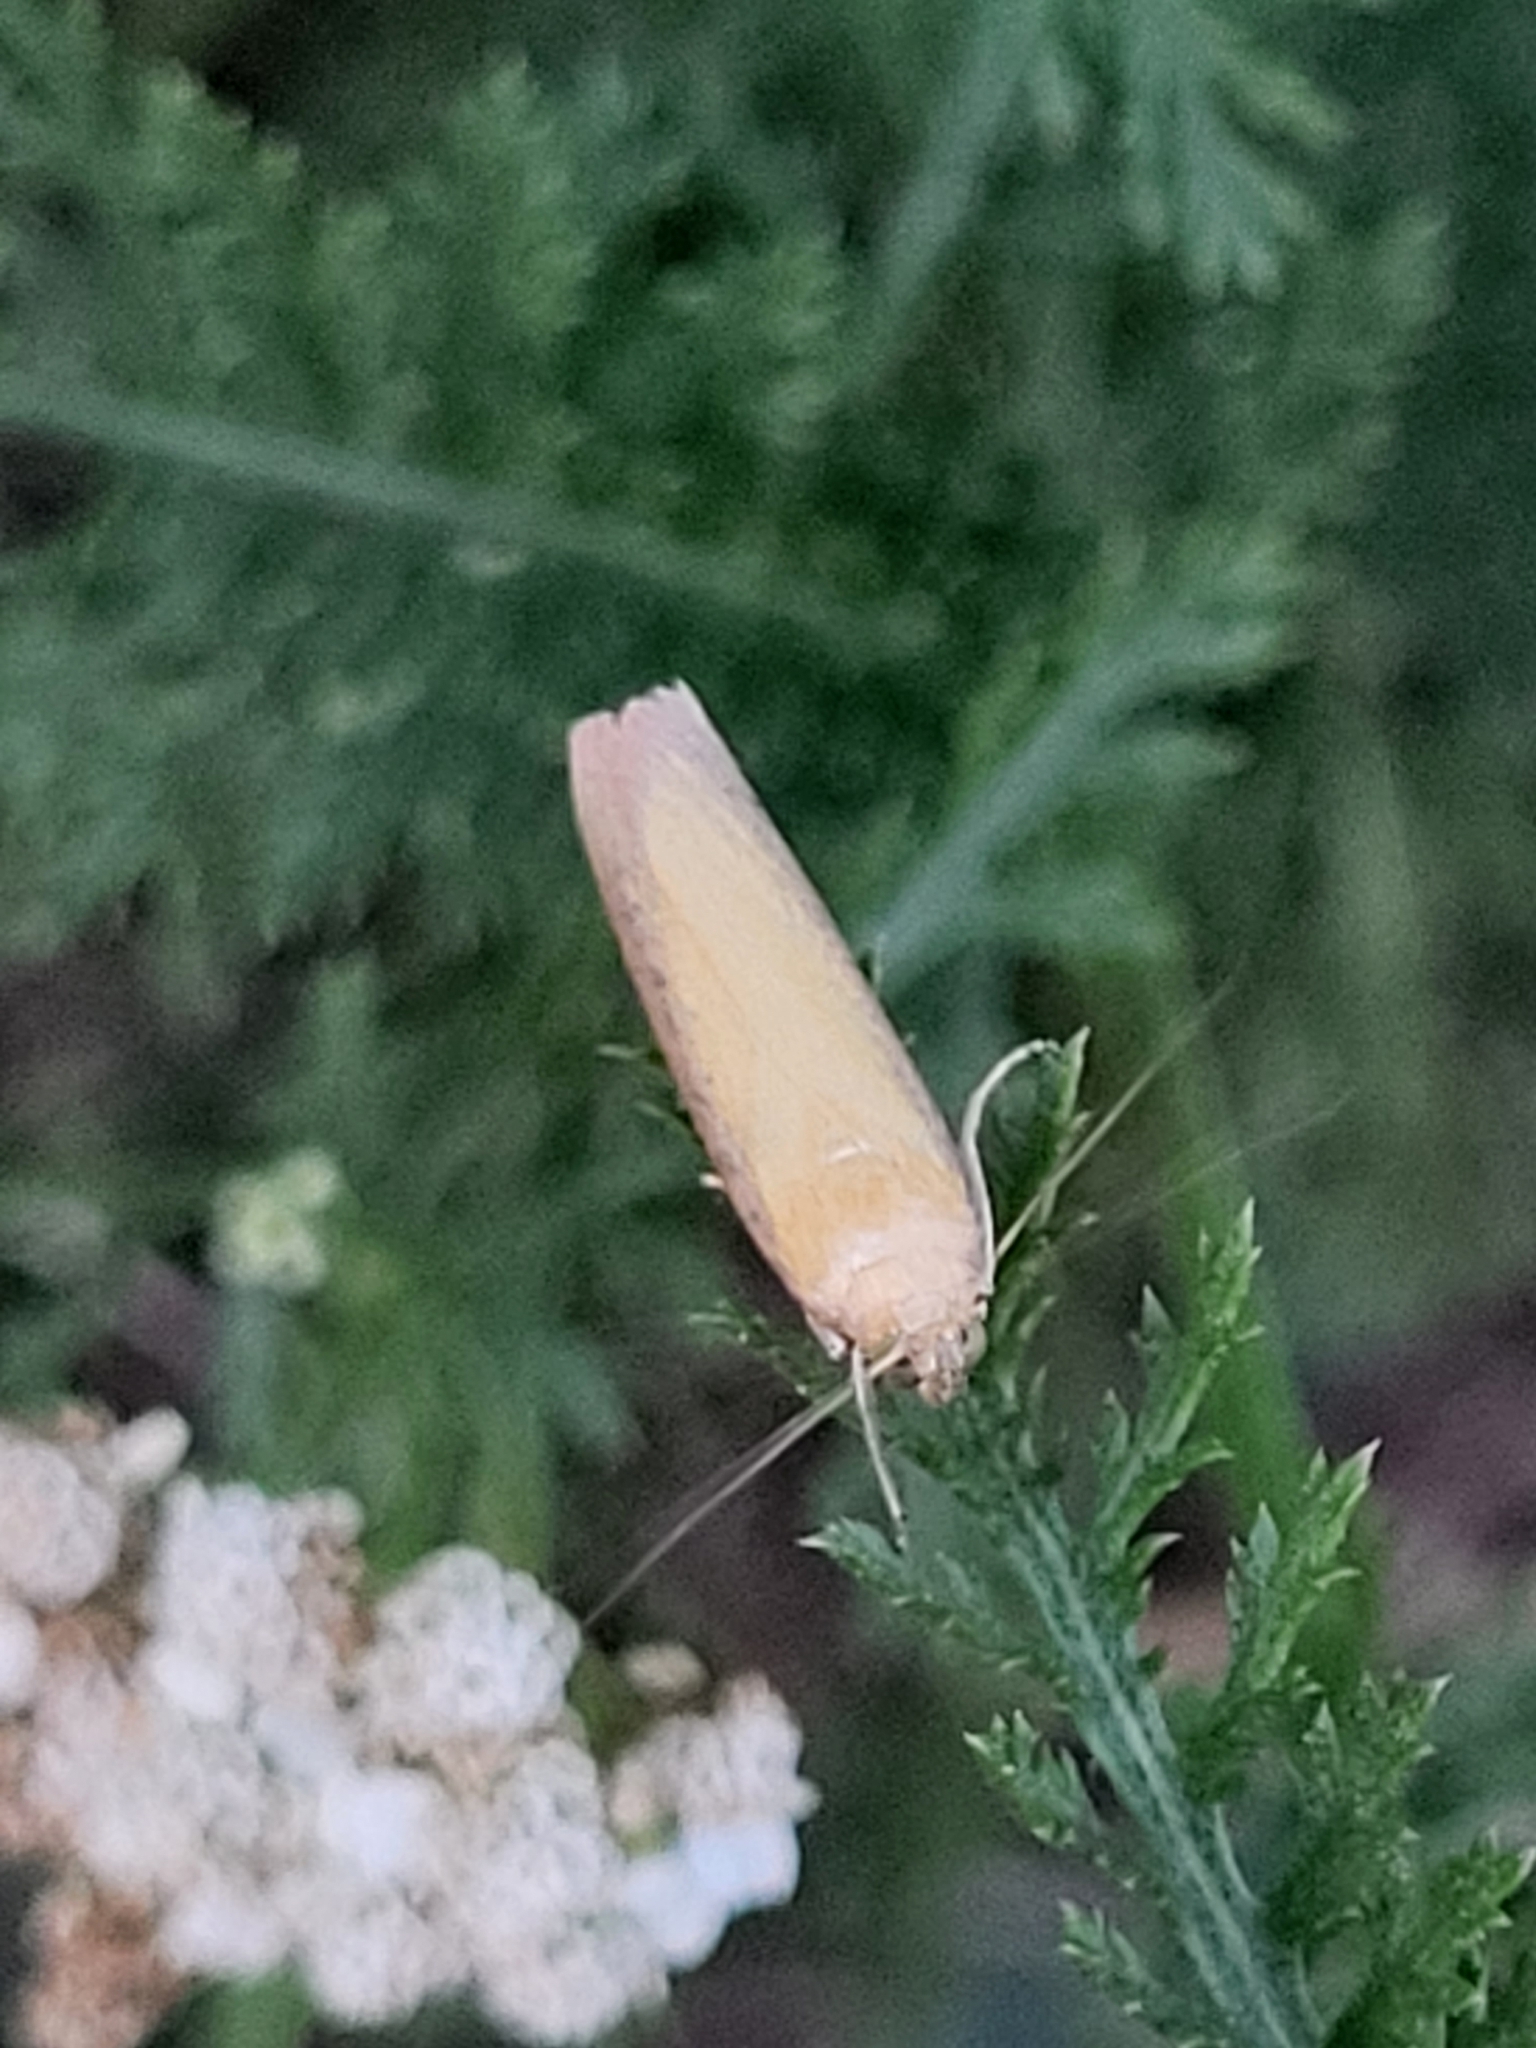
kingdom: Animalia
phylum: Arthropoda
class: Insecta
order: Lepidoptera
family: Pyralidae
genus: Oncocera
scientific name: Oncocera semirubella
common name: Rosy-striped knot-horn
